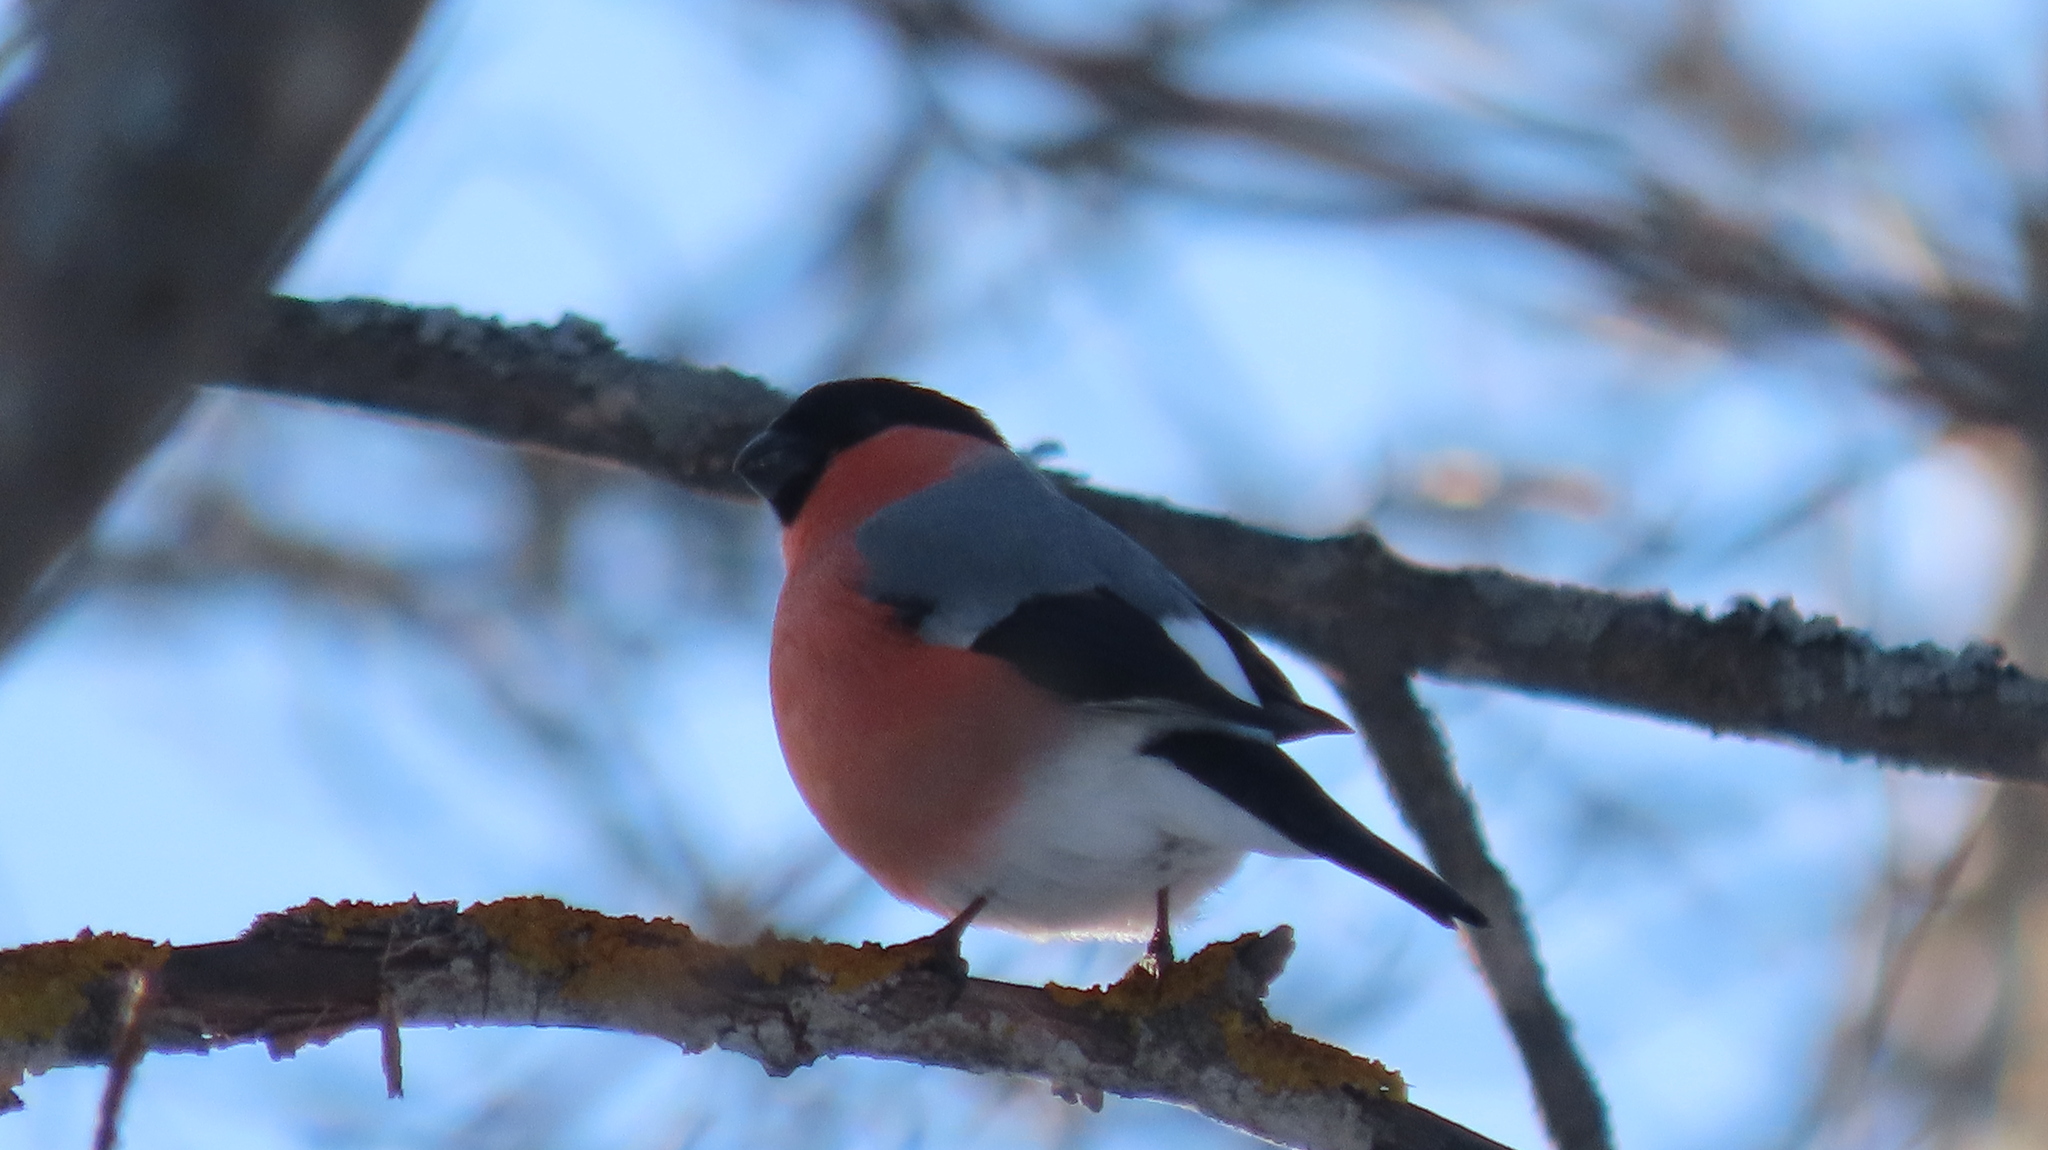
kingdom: Animalia
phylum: Chordata
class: Aves
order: Passeriformes
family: Fringillidae
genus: Pyrrhula
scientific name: Pyrrhula pyrrhula
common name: Eurasian bullfinch
